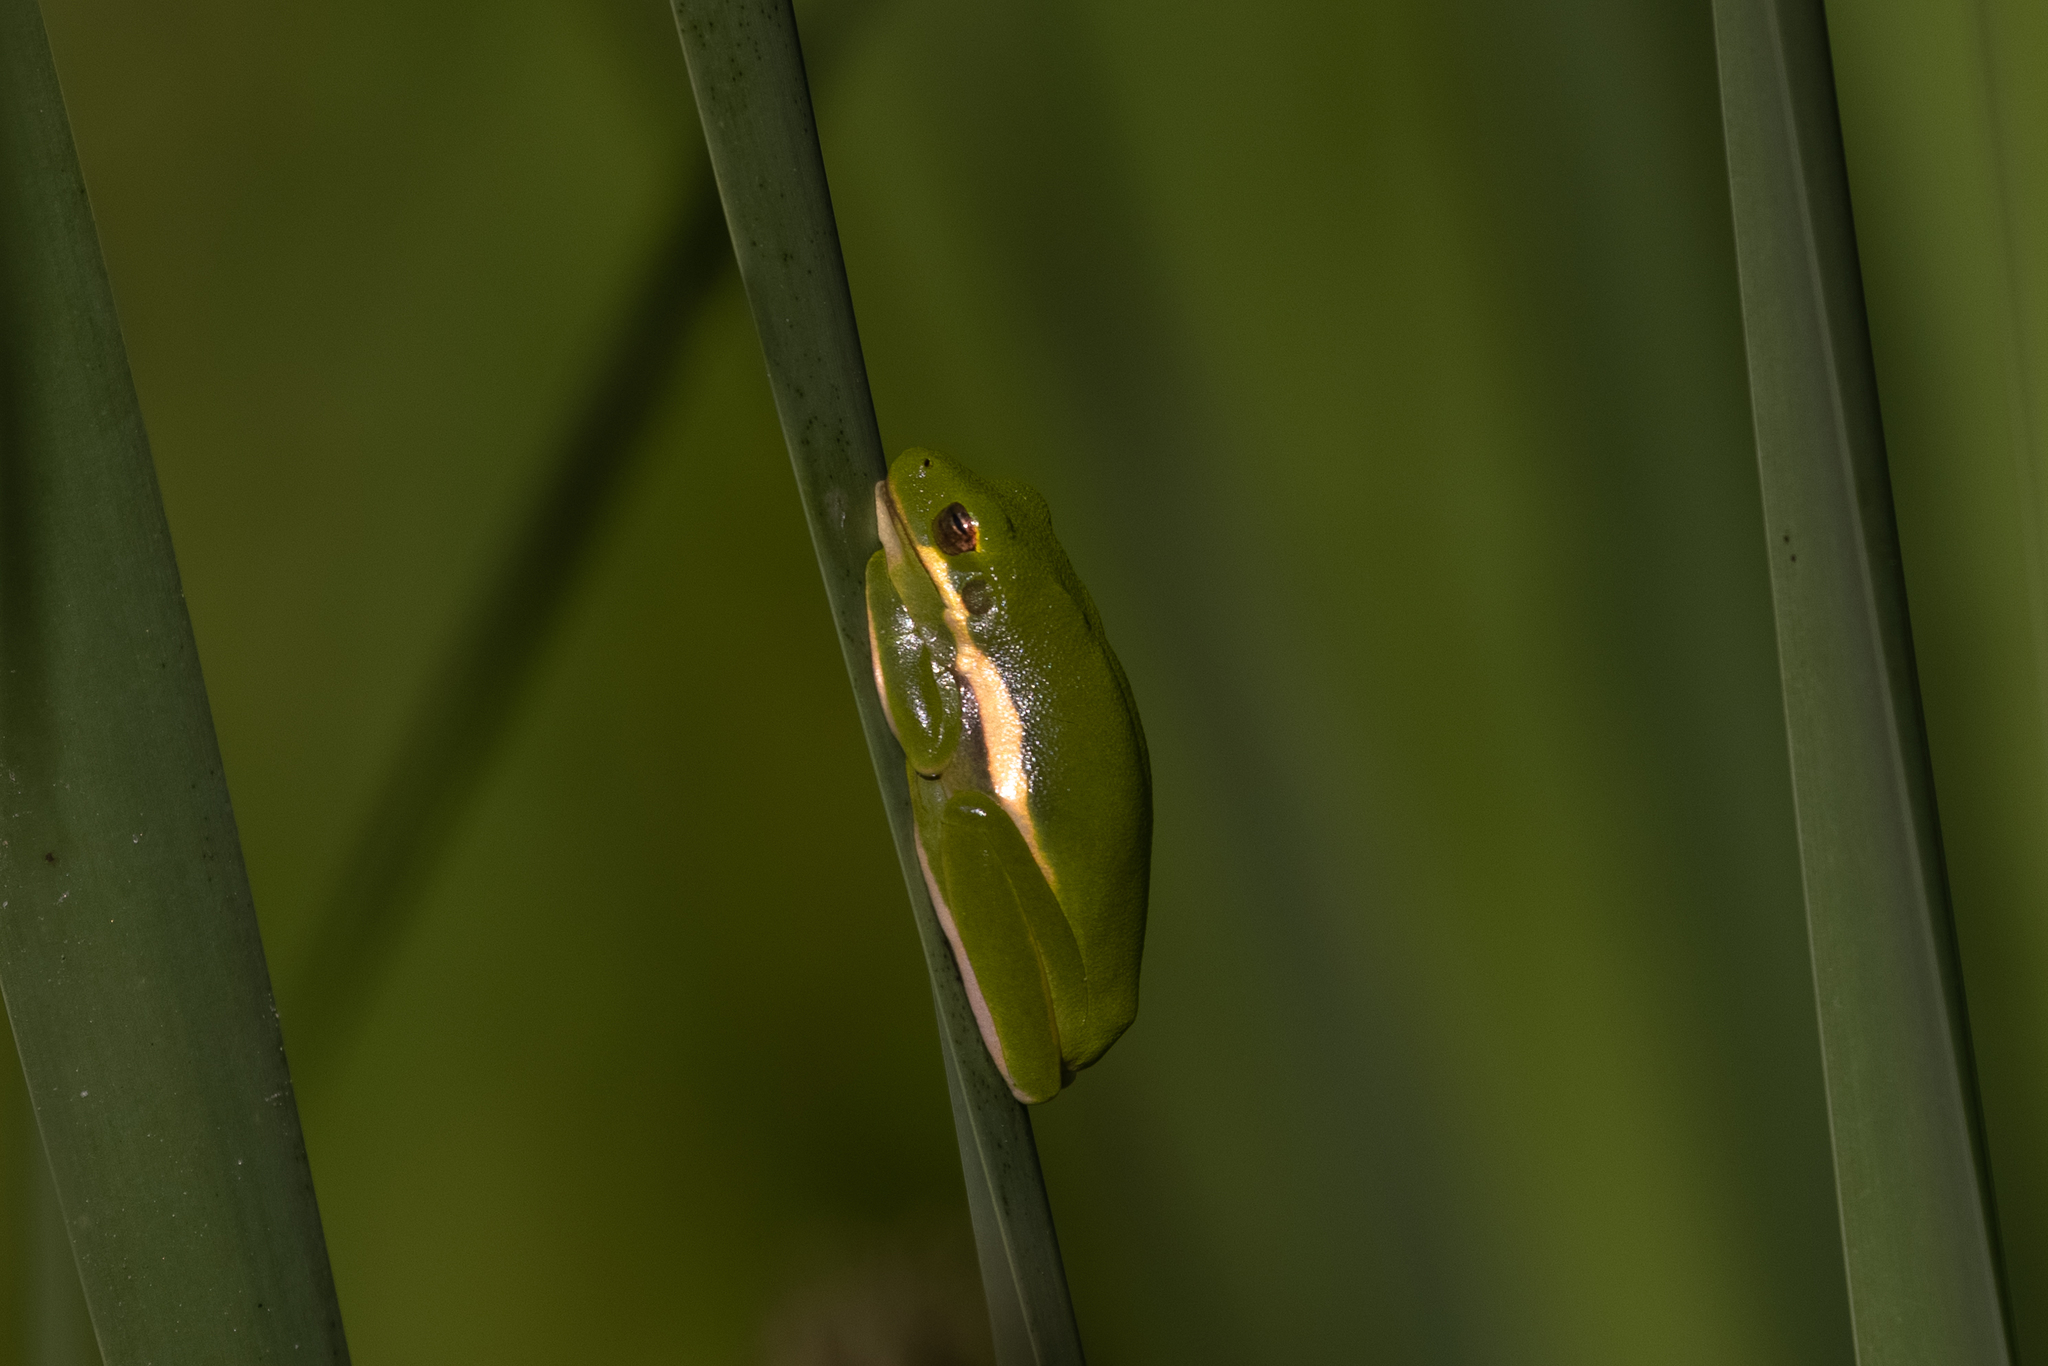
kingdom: Animalia
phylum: Chordata
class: Amphibia
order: Anura
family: Hylidae
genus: Dryophytes
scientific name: Dryophytes cinereus
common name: Green treefrog
